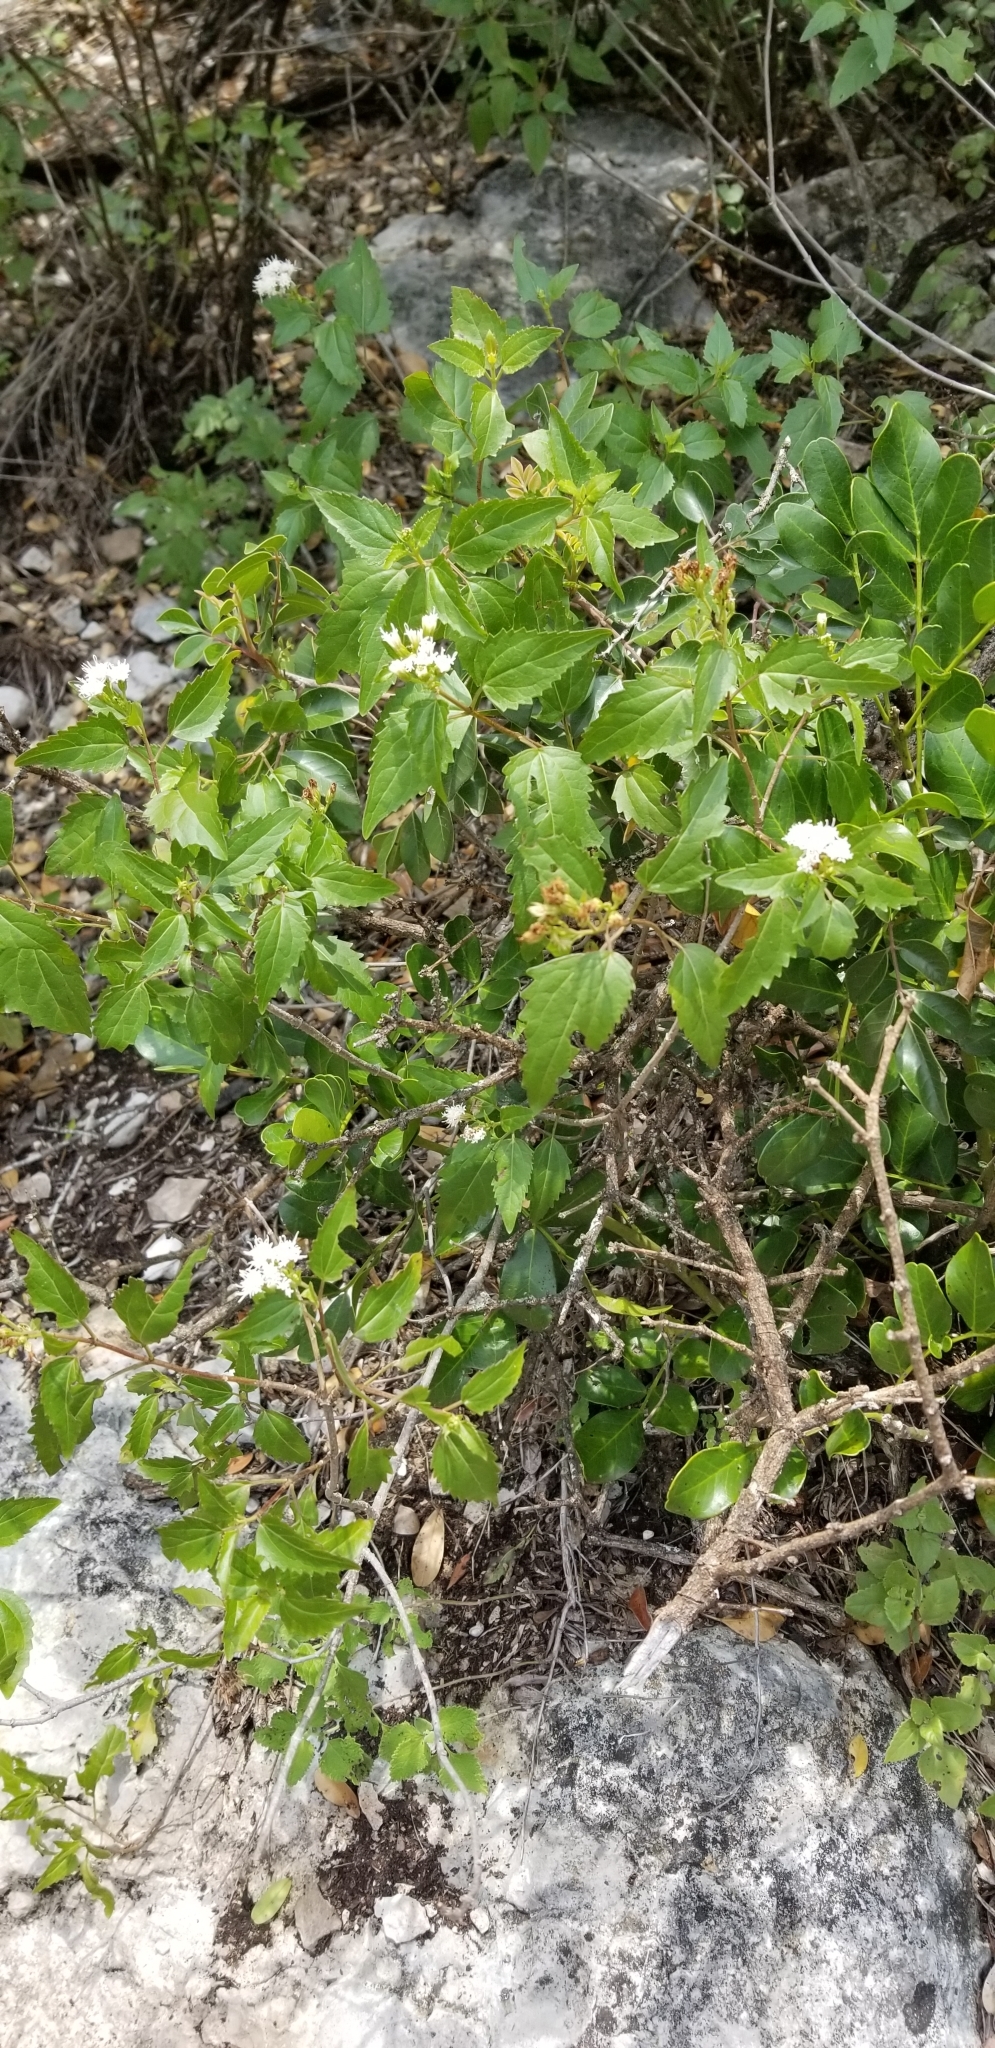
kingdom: Plantae
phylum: Tracheophyta
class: Magnoliopsida
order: Asterales
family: Asteraceae
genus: Ageratina
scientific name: Ageratina havanensis
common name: Havana snakeroot
